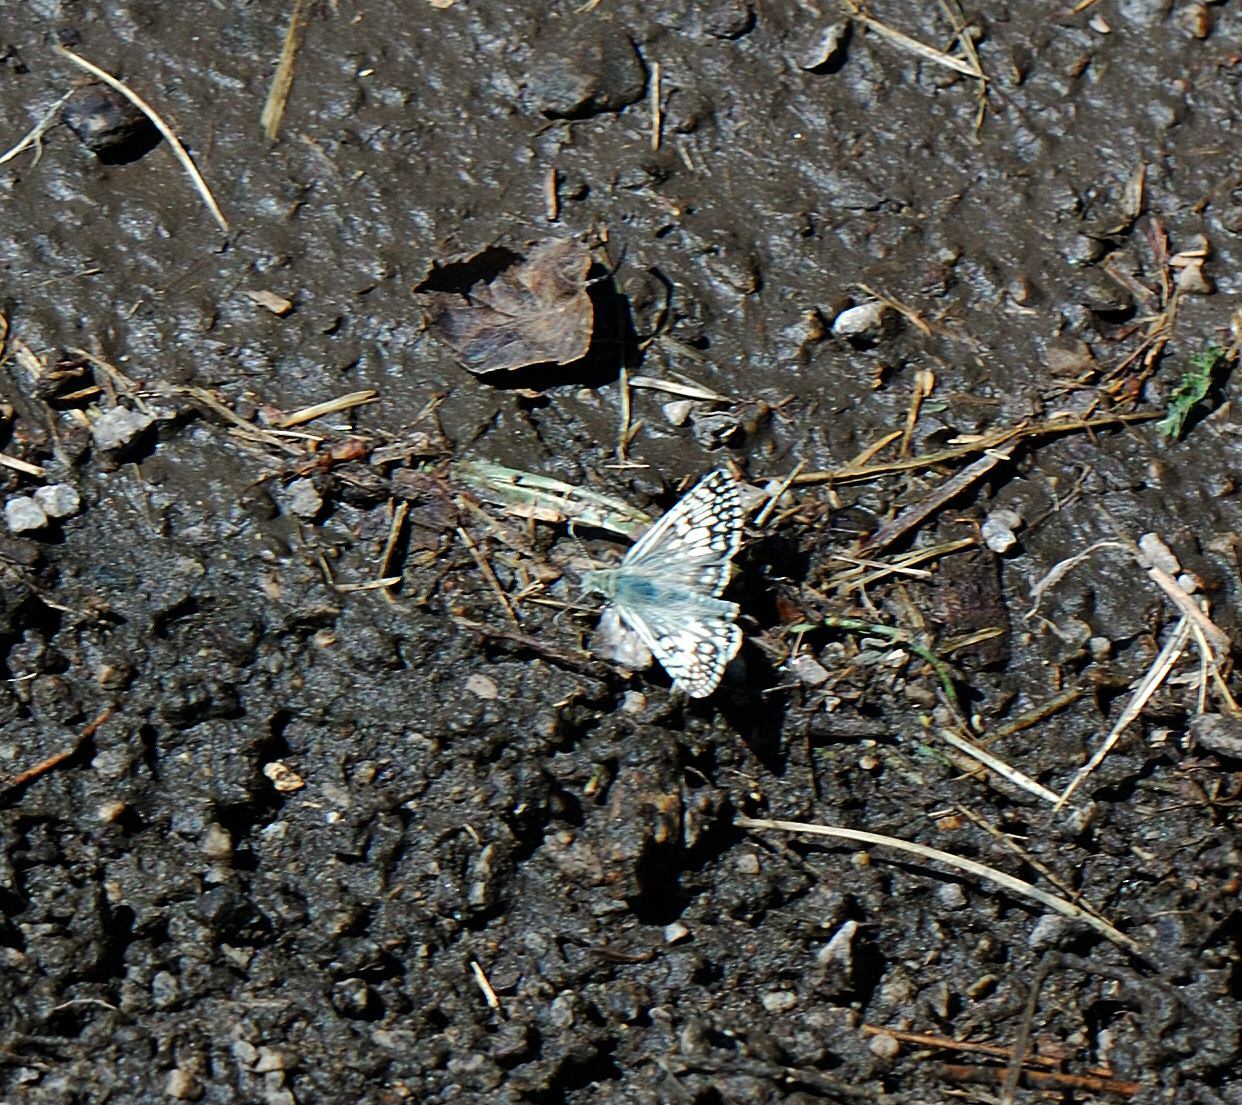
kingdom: Animalia
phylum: Arthropoda
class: Insecta
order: Lepidoptera
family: Hesperiidae
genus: Burnsius
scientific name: Burnsius communis
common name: Common checkered-skipper
